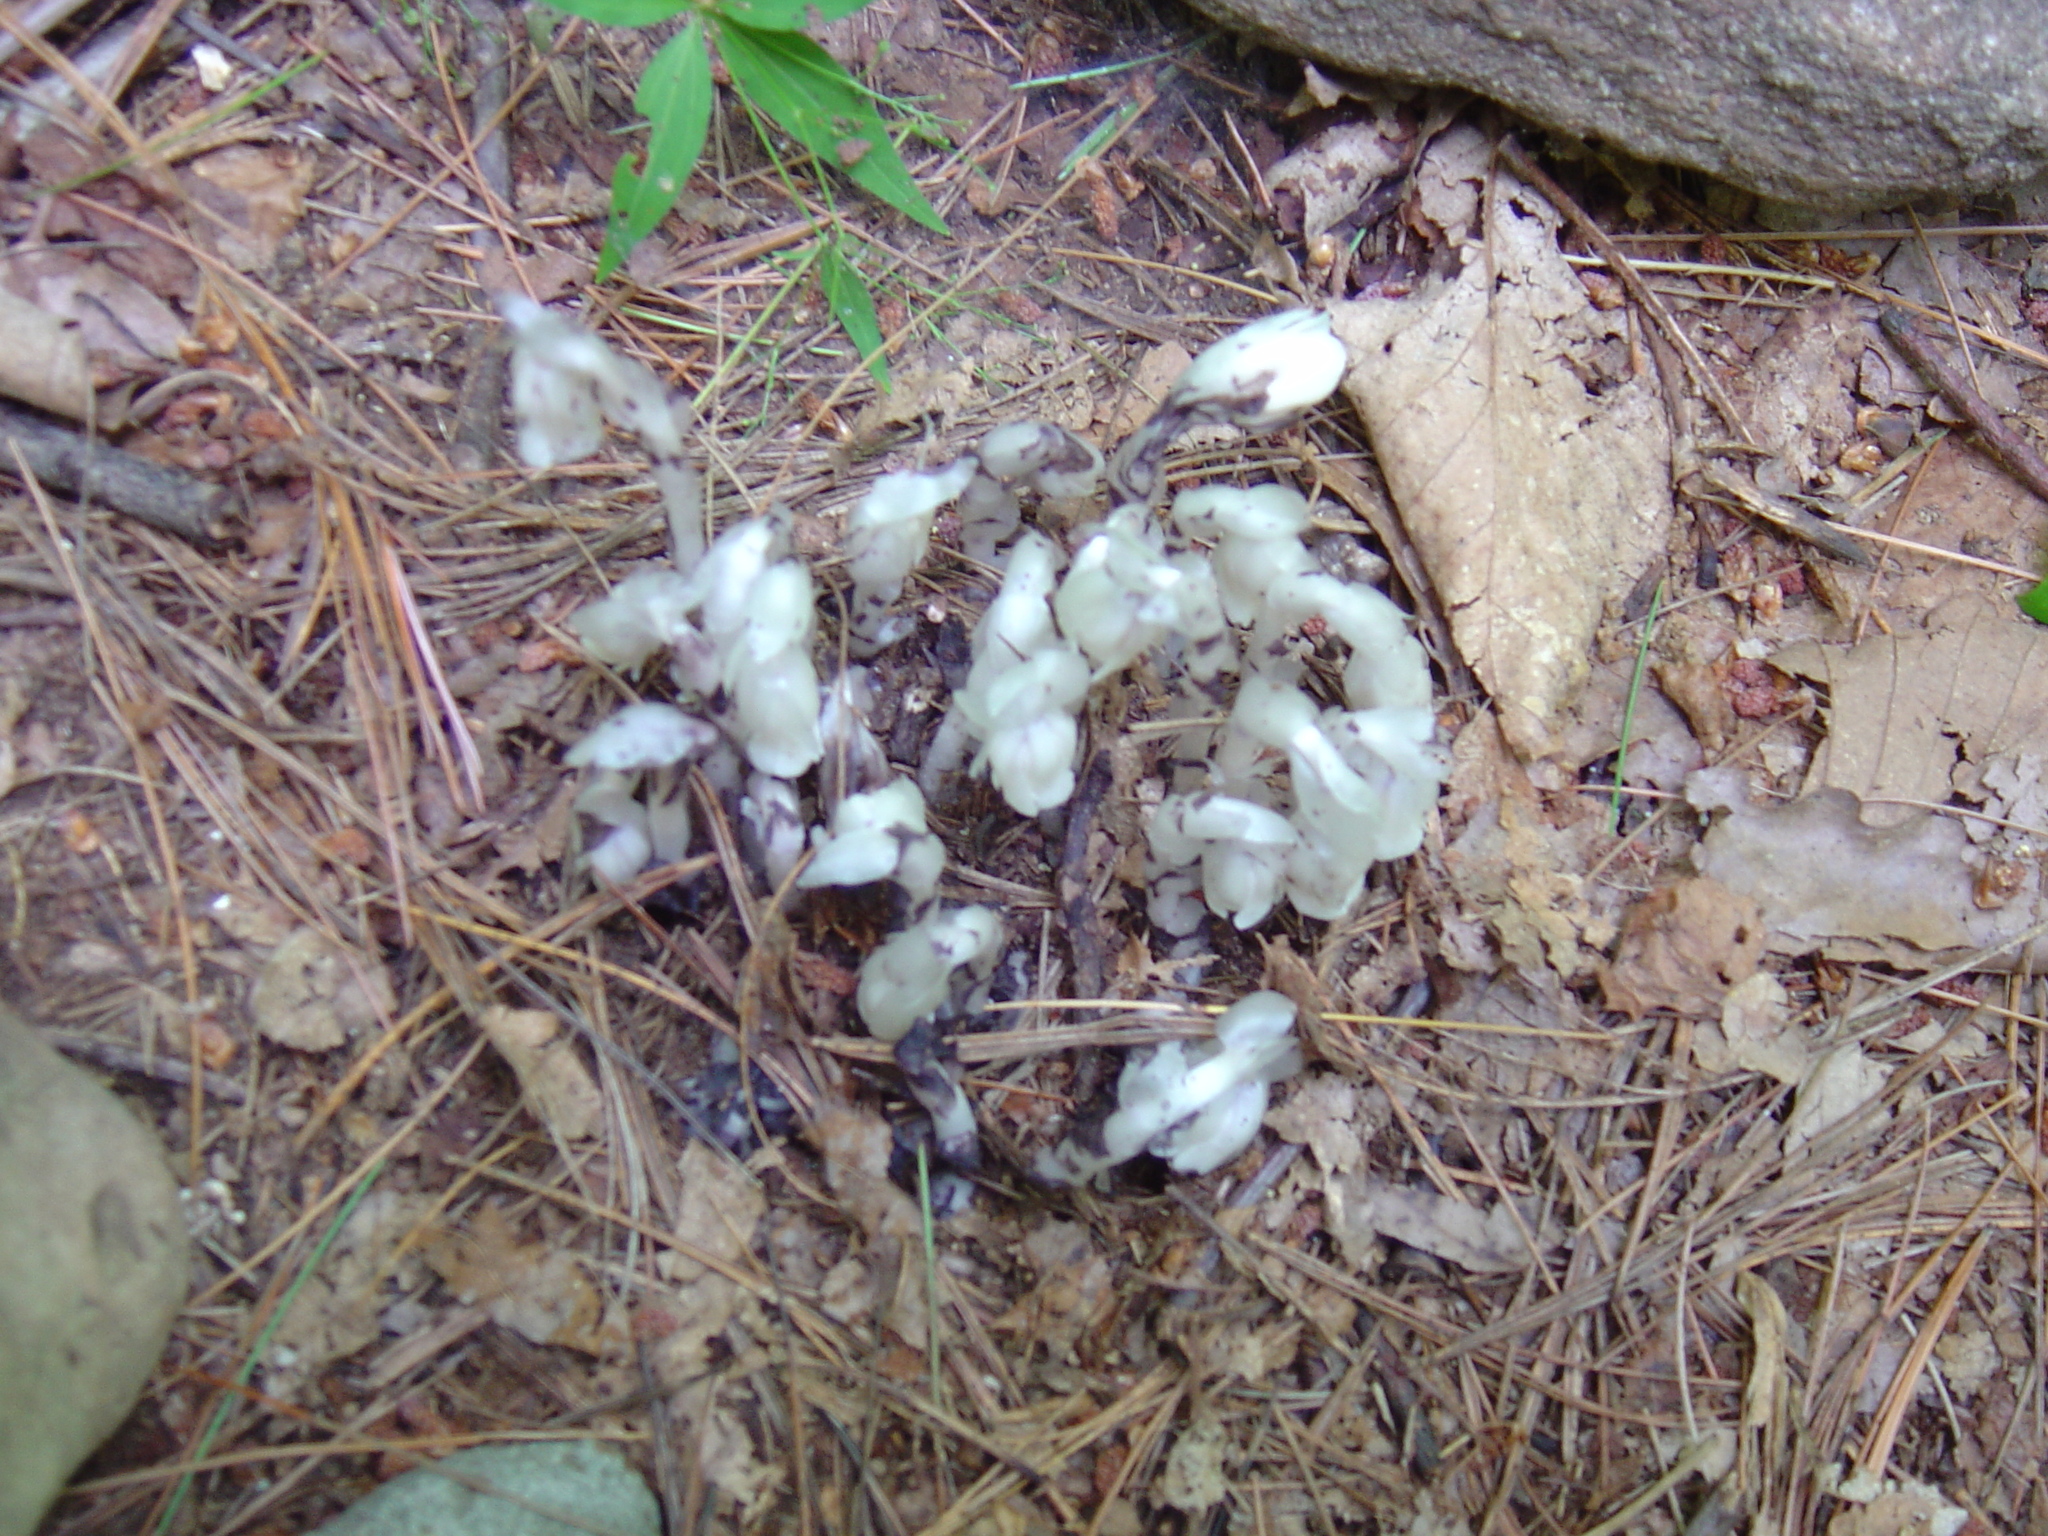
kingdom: Plantae
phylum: Tracheophyta
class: Magnoliopsida
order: Ericales
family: Ericaceae
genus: Monotropa
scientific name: Monotropa uniflora
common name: Convulsion root
